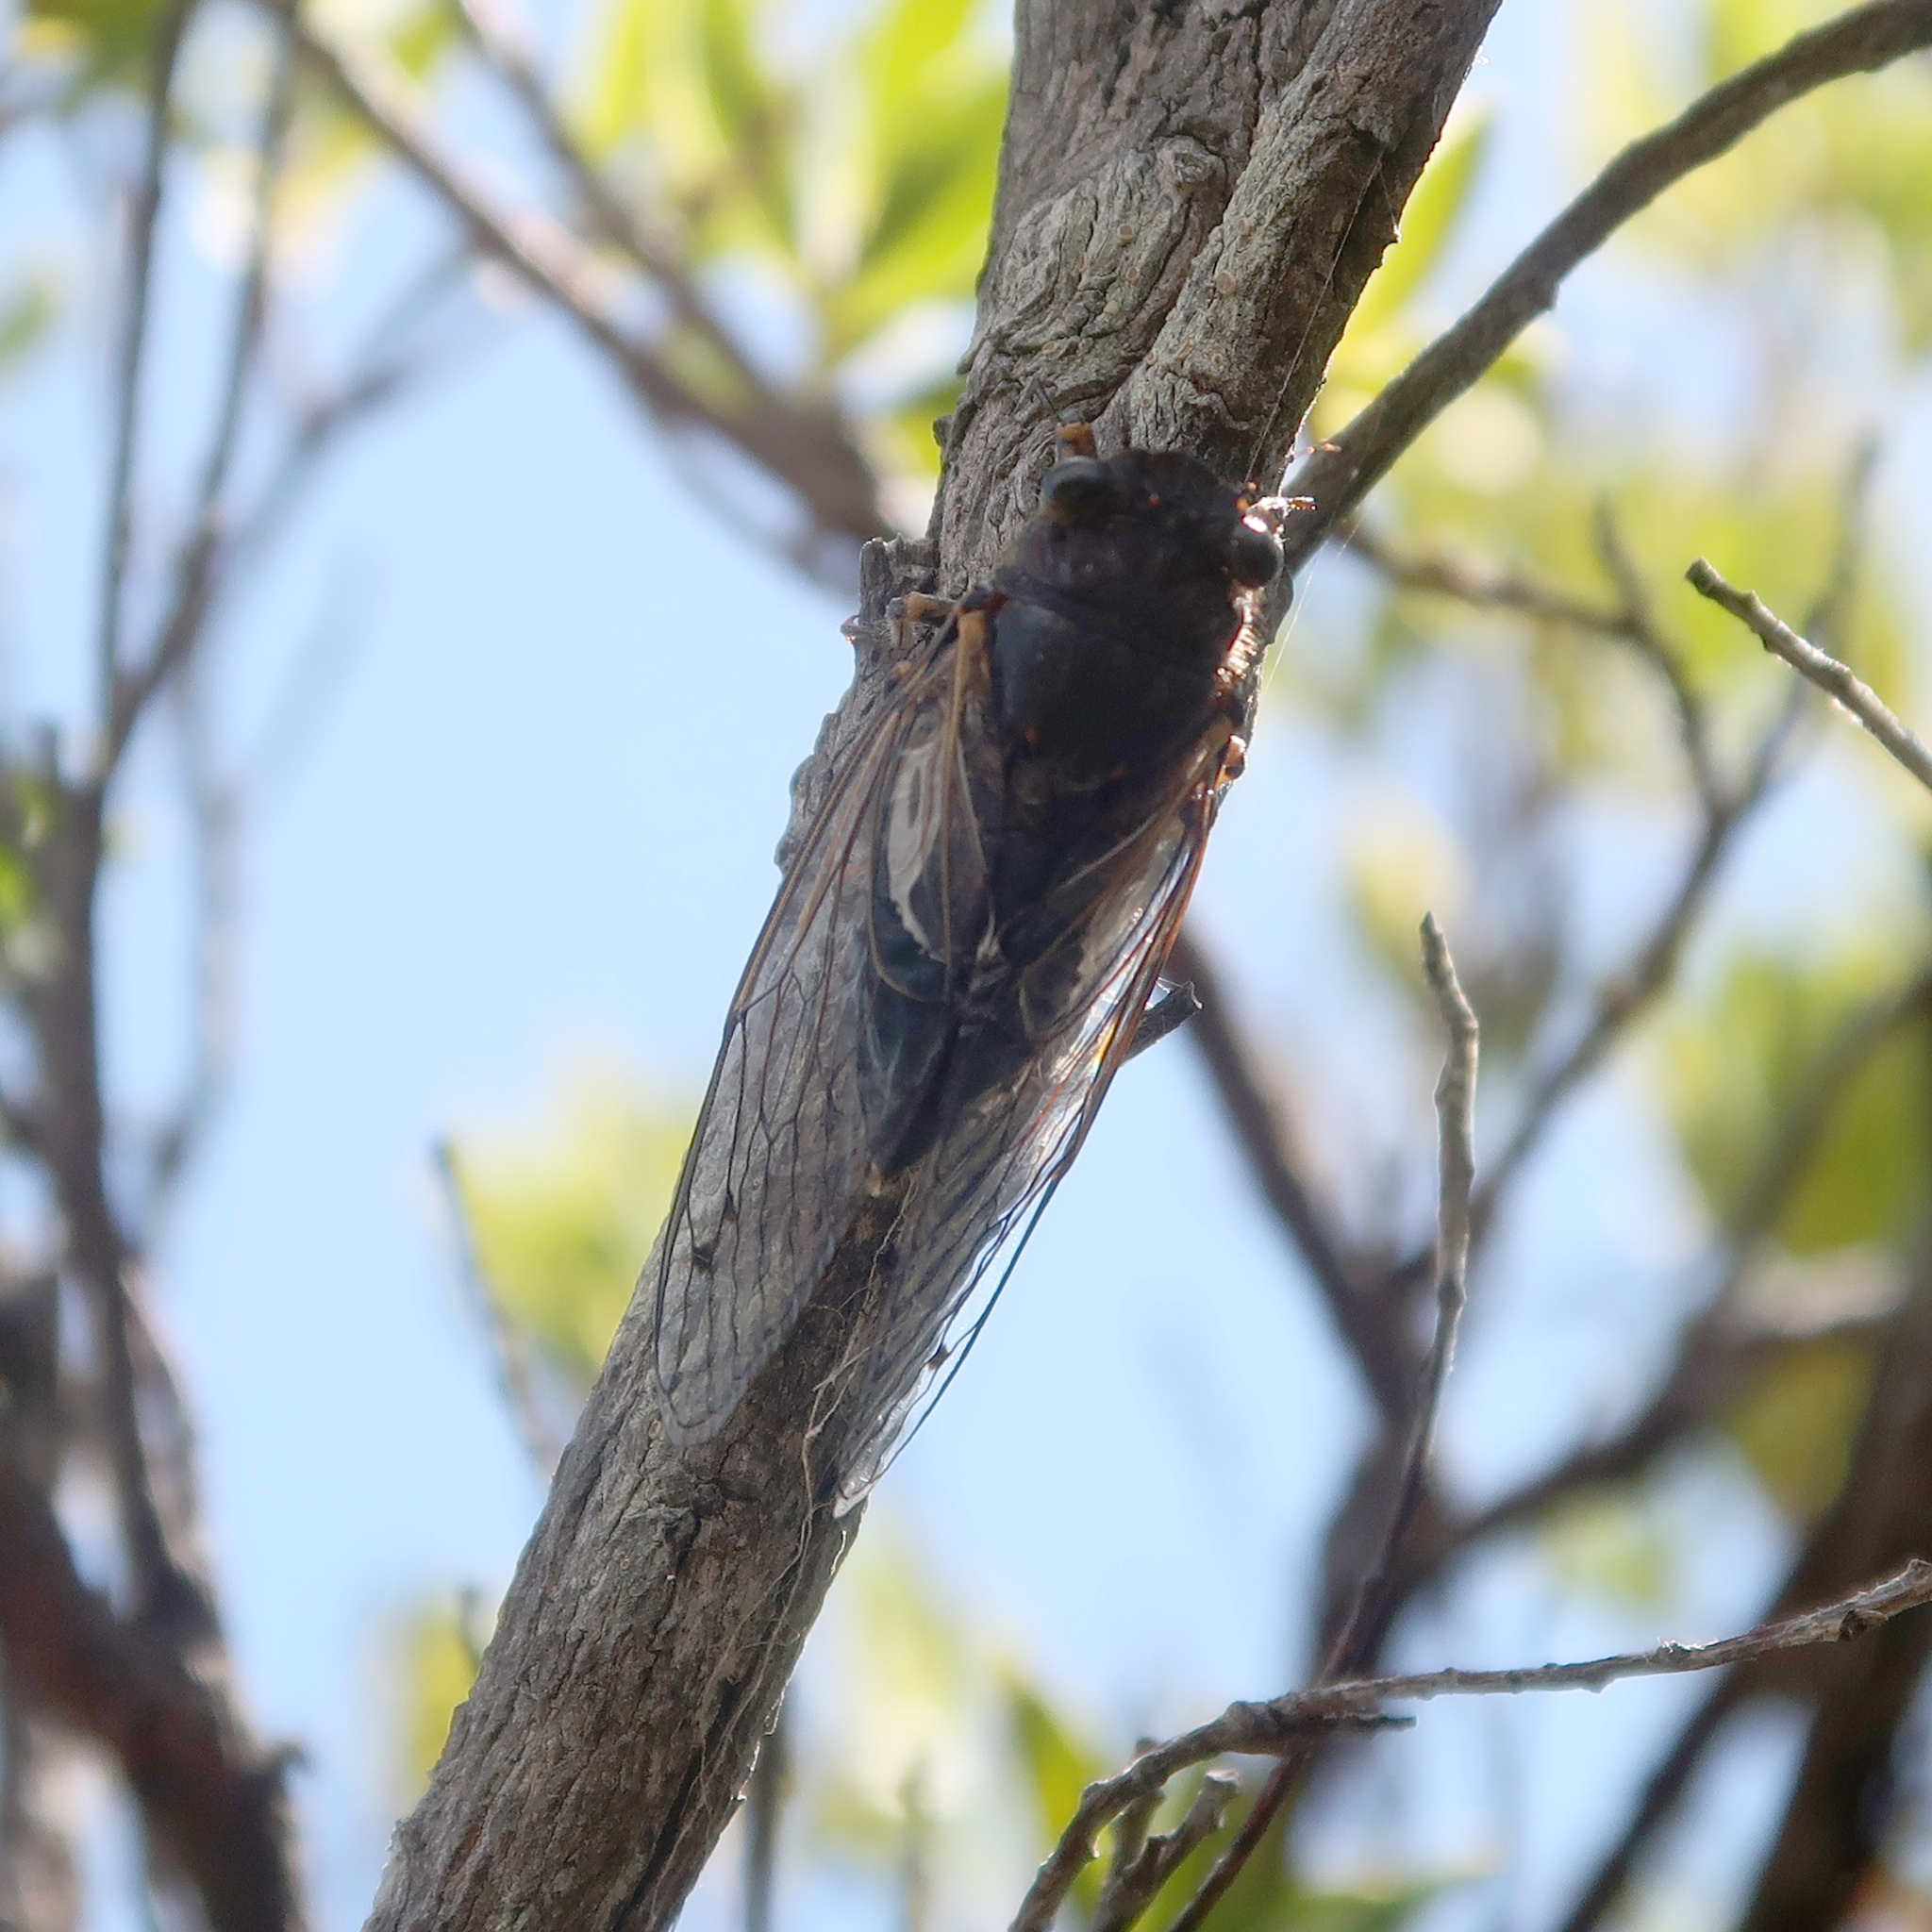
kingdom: Animalia
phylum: Arthropoda
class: Insecta
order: Hemiptera
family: Cicadidae
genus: Gelidea
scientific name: Gelidea torrida
